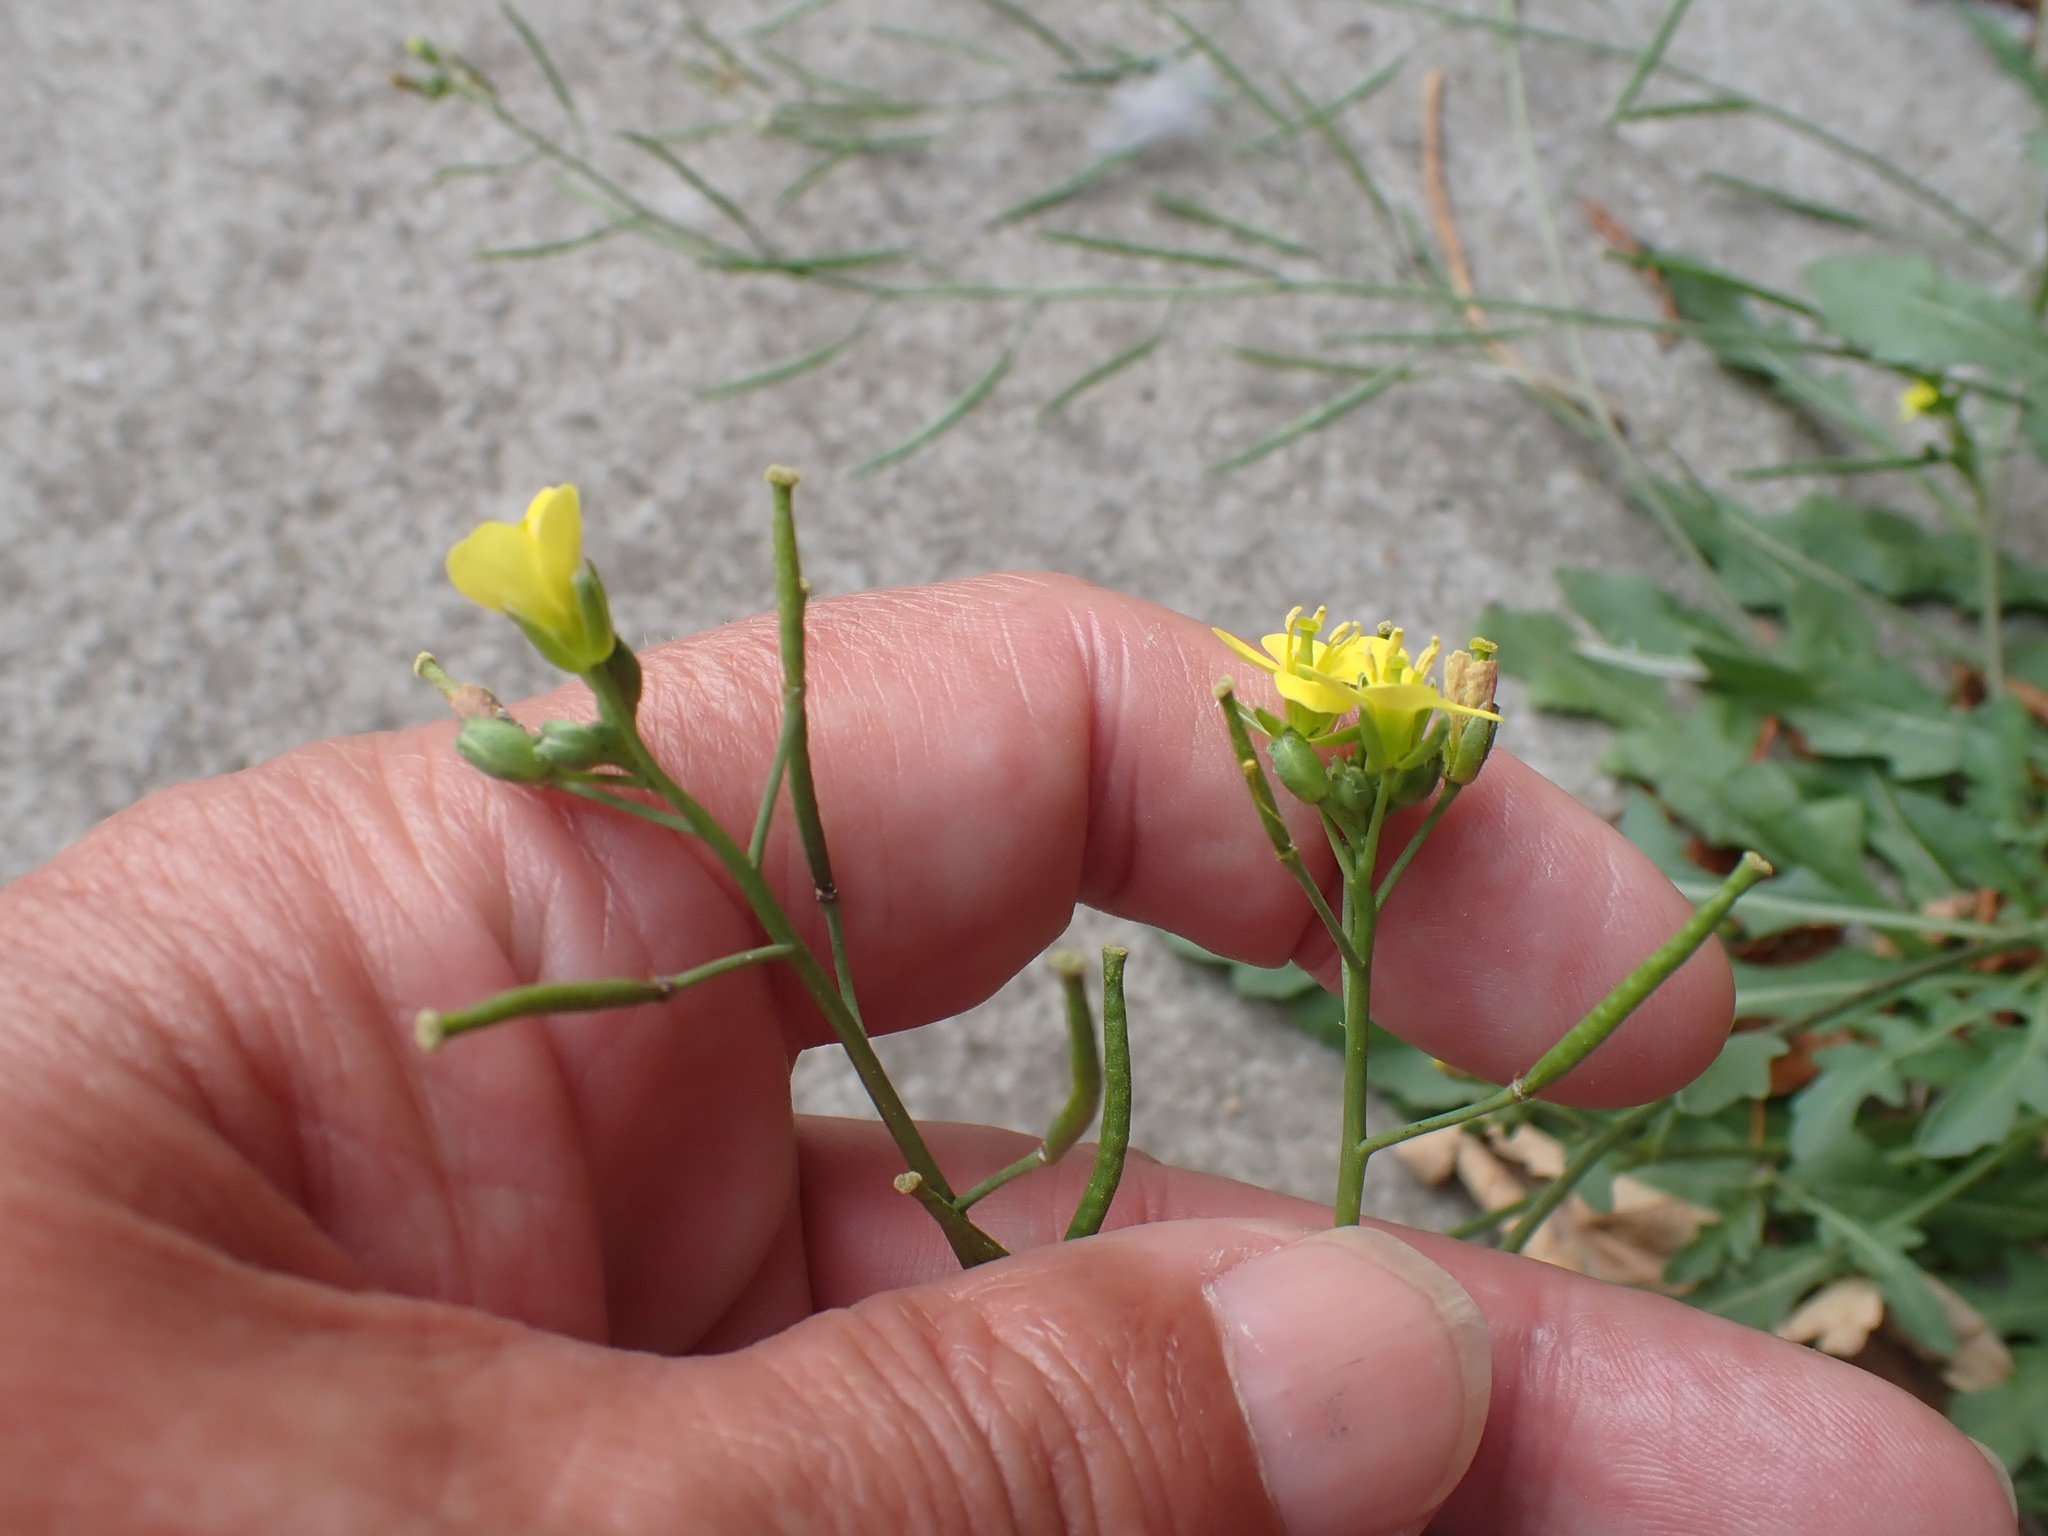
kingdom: Plantae
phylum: Tracheophyta
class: Magnoliopsida
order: Brassicales
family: Brassicaceae
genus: Diplotaxis
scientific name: Diplotaxis muralis
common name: Annual wall-rocket
